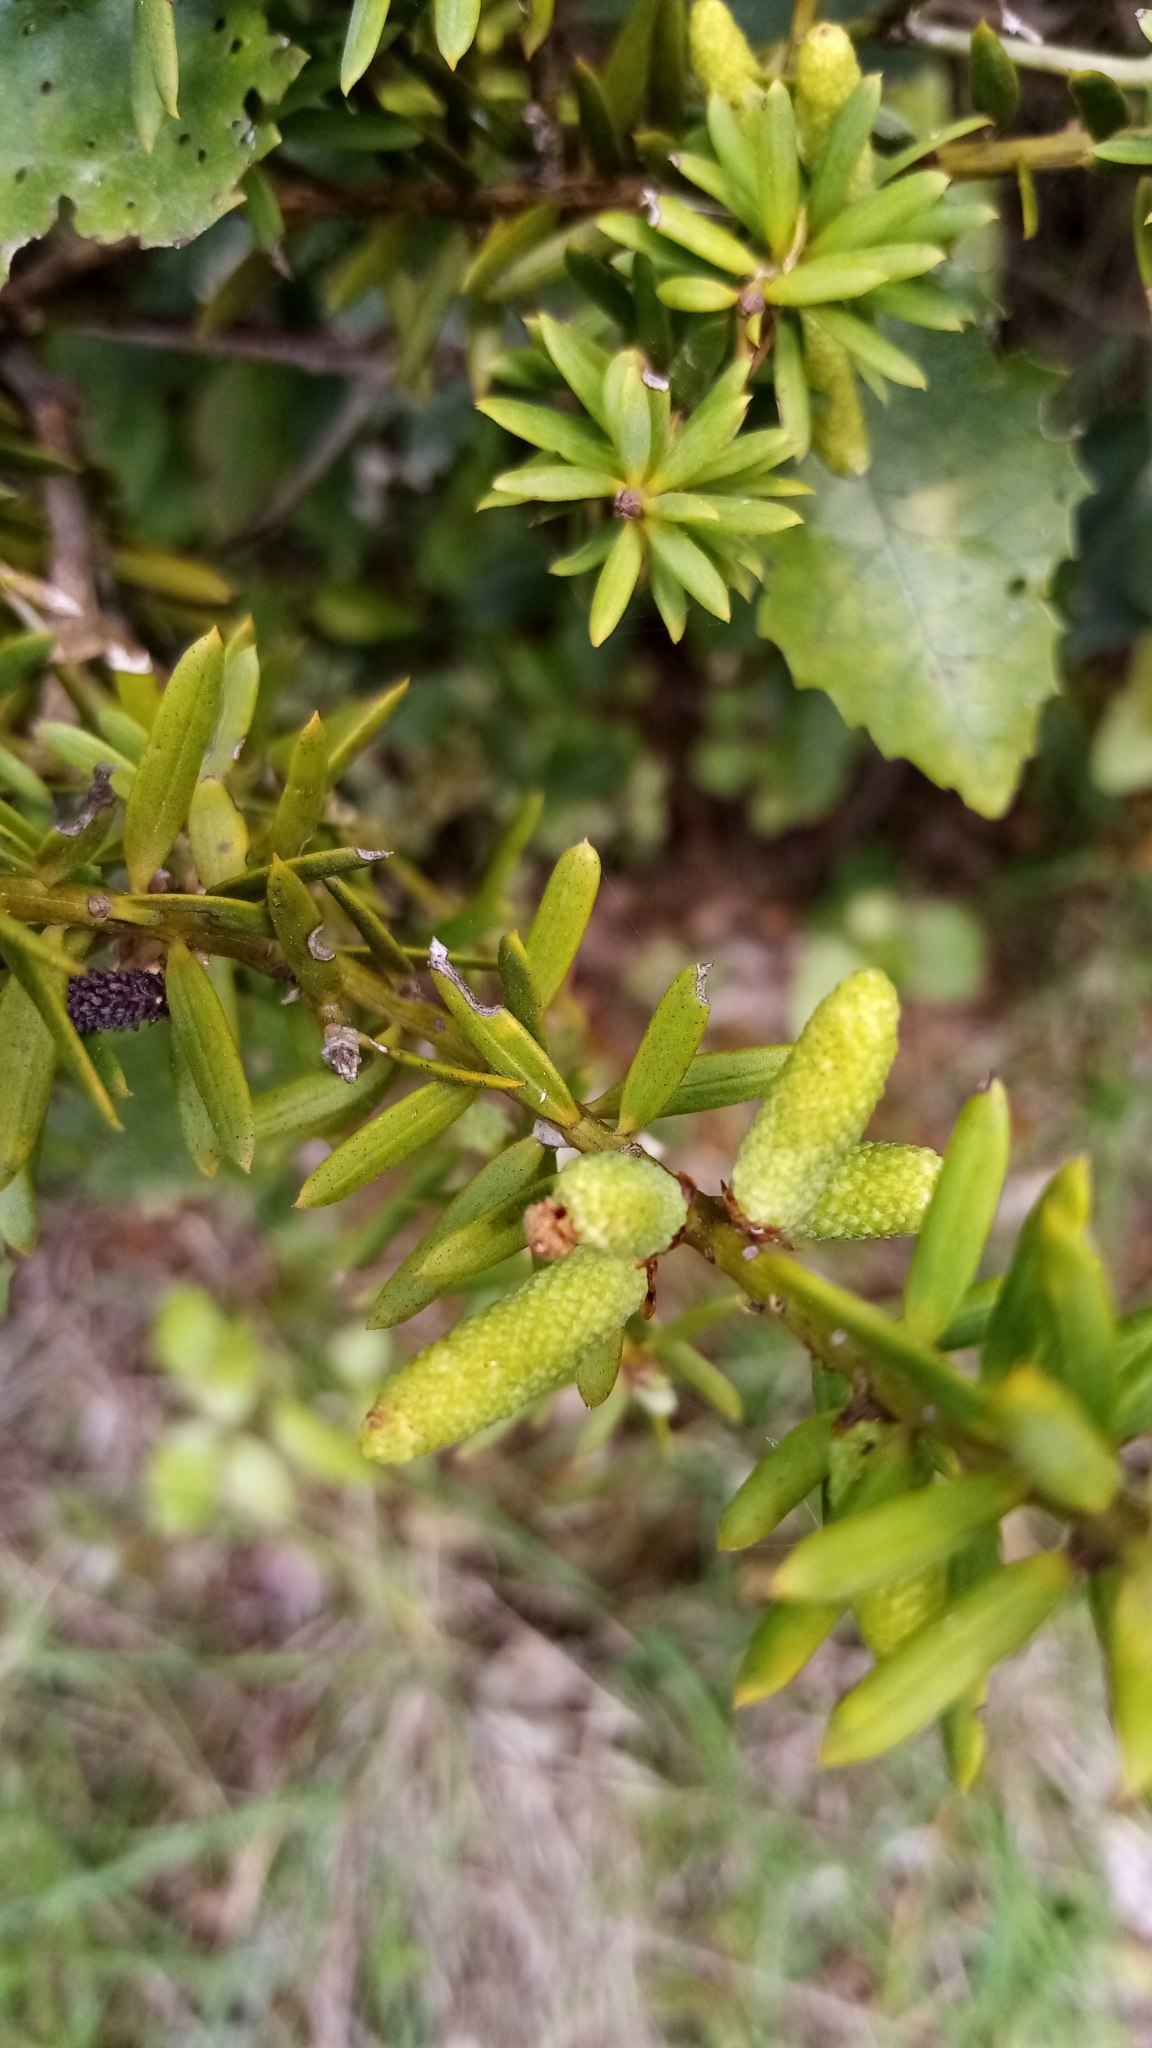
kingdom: Plantae
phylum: Tracheophyta
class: Pinopsida
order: Pinales
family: Podocarpaceae
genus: Podocarpus
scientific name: Podocarpus totara
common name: Totara
